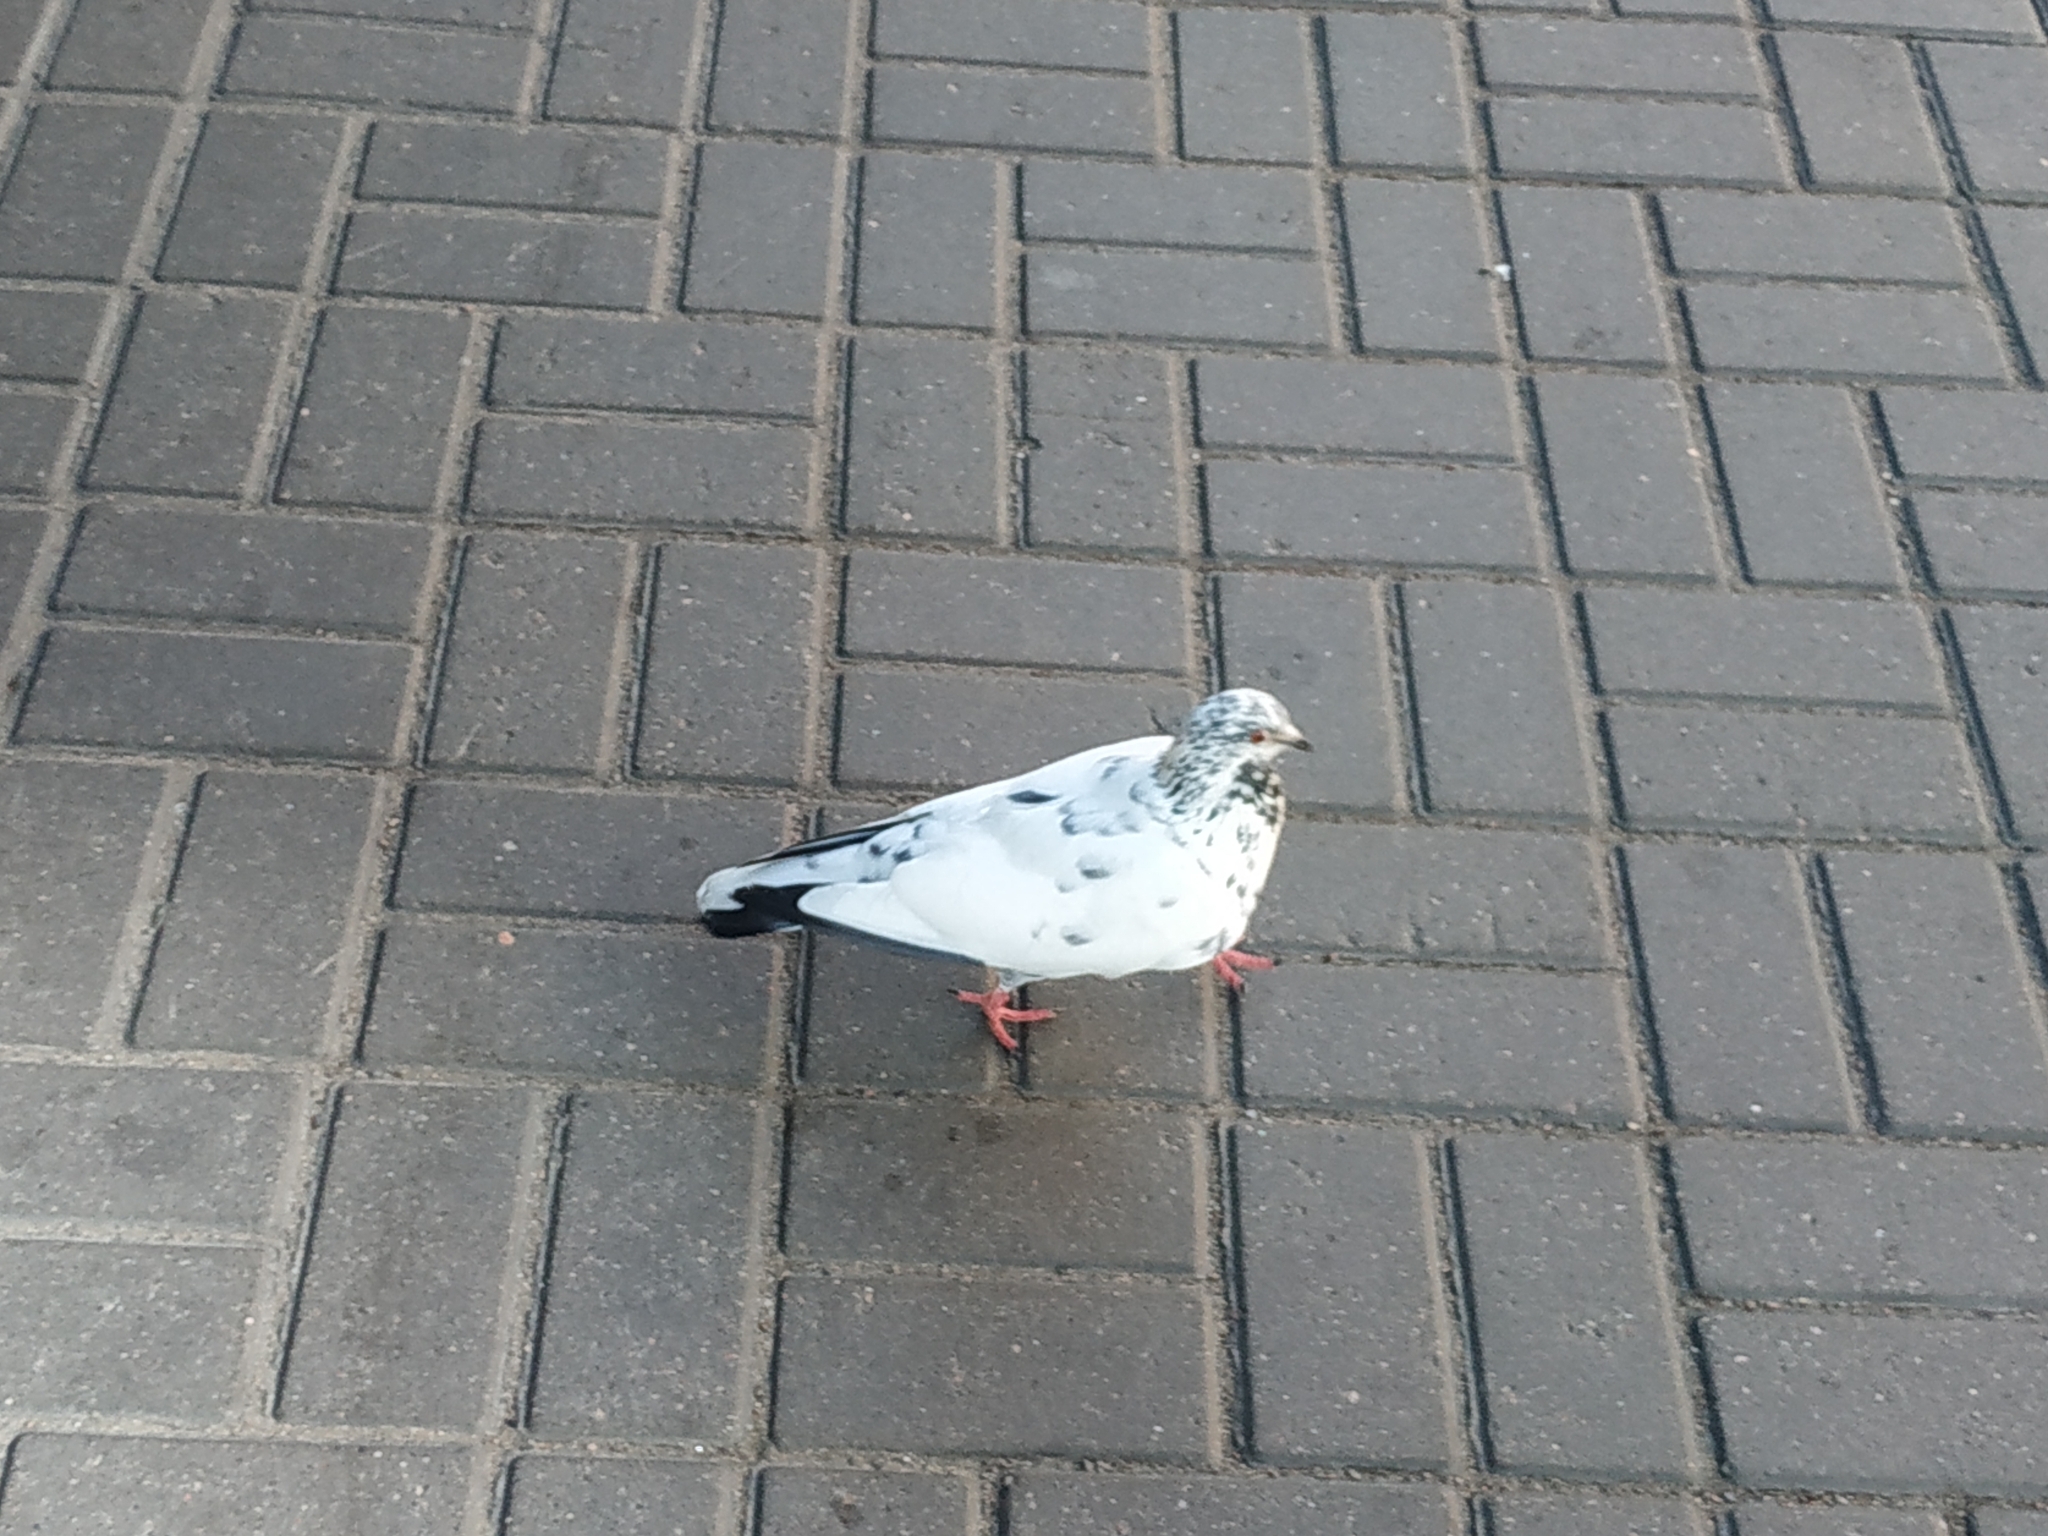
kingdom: Animalia
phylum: Chordata
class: Aves
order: Columbiformes
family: Columbidae
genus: Columba
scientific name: Columba livia
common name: Rock pigeon
